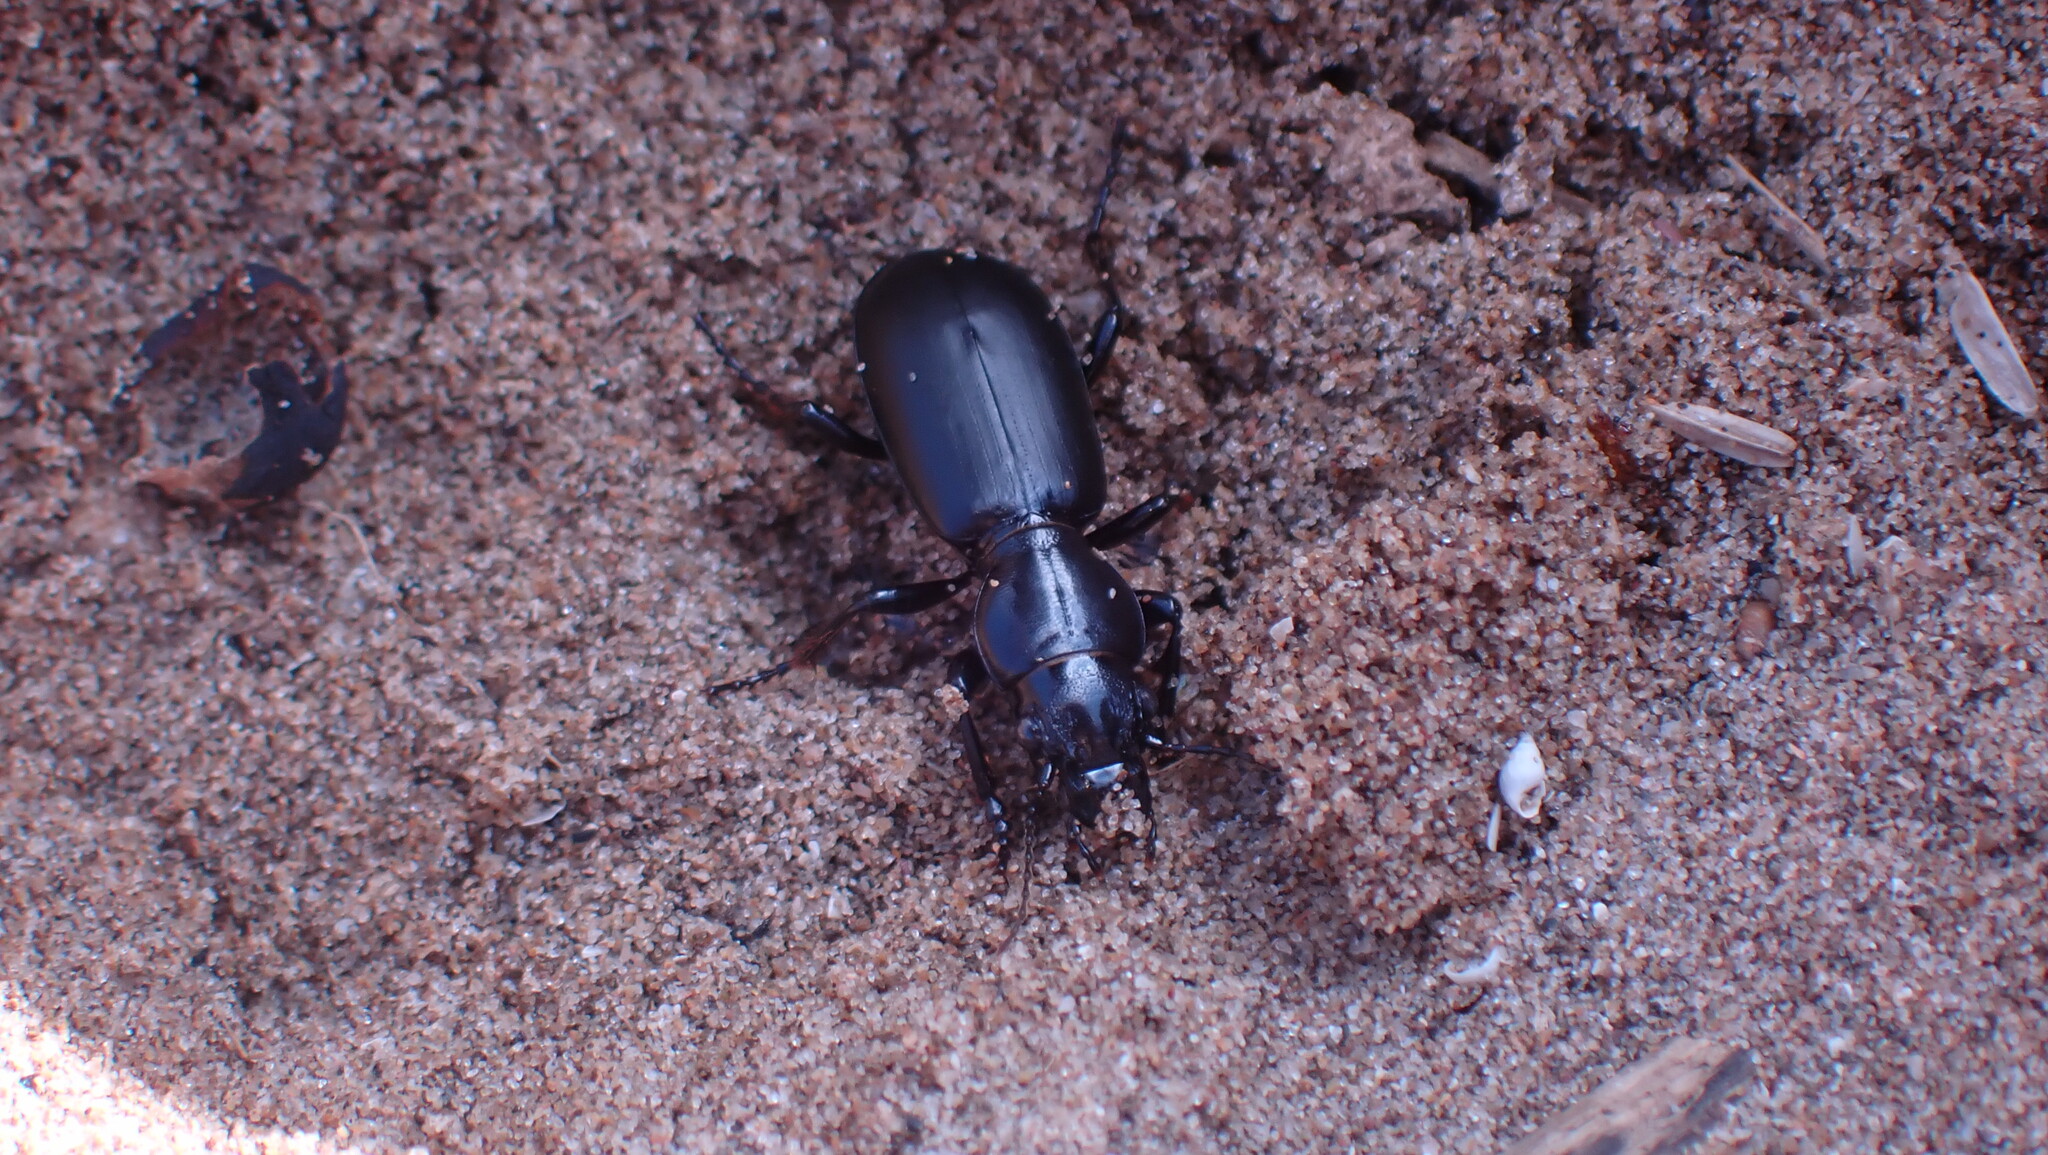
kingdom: Animalia
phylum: Arthropoda
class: Insecta
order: Coleoptera
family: Carabidae
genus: Broscus
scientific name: Broscus cephalotes
